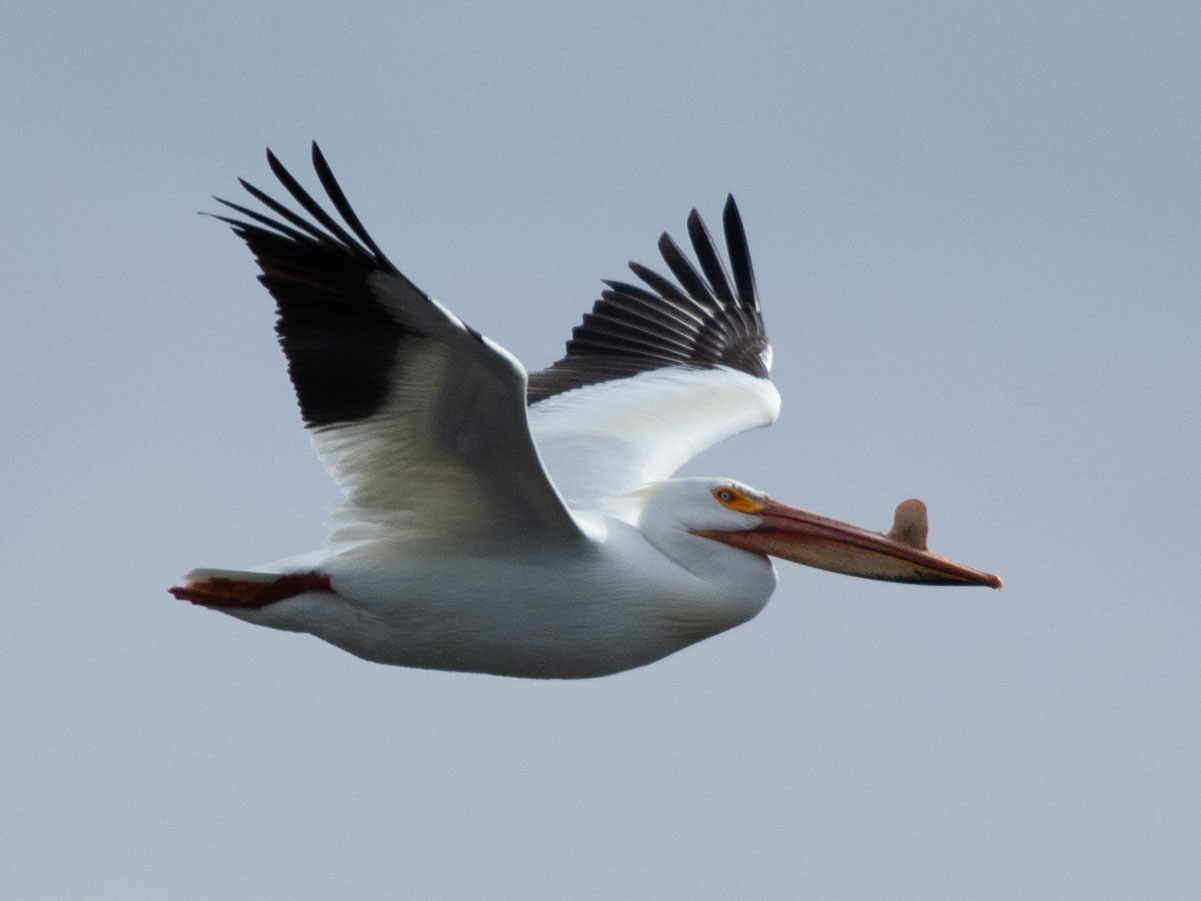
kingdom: Animalia
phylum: Chordata
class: Aves
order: Pelecaniformes
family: Pelecanidae
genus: Pelecanus
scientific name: Pelecanus erythrorhynchos
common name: American white pelican
